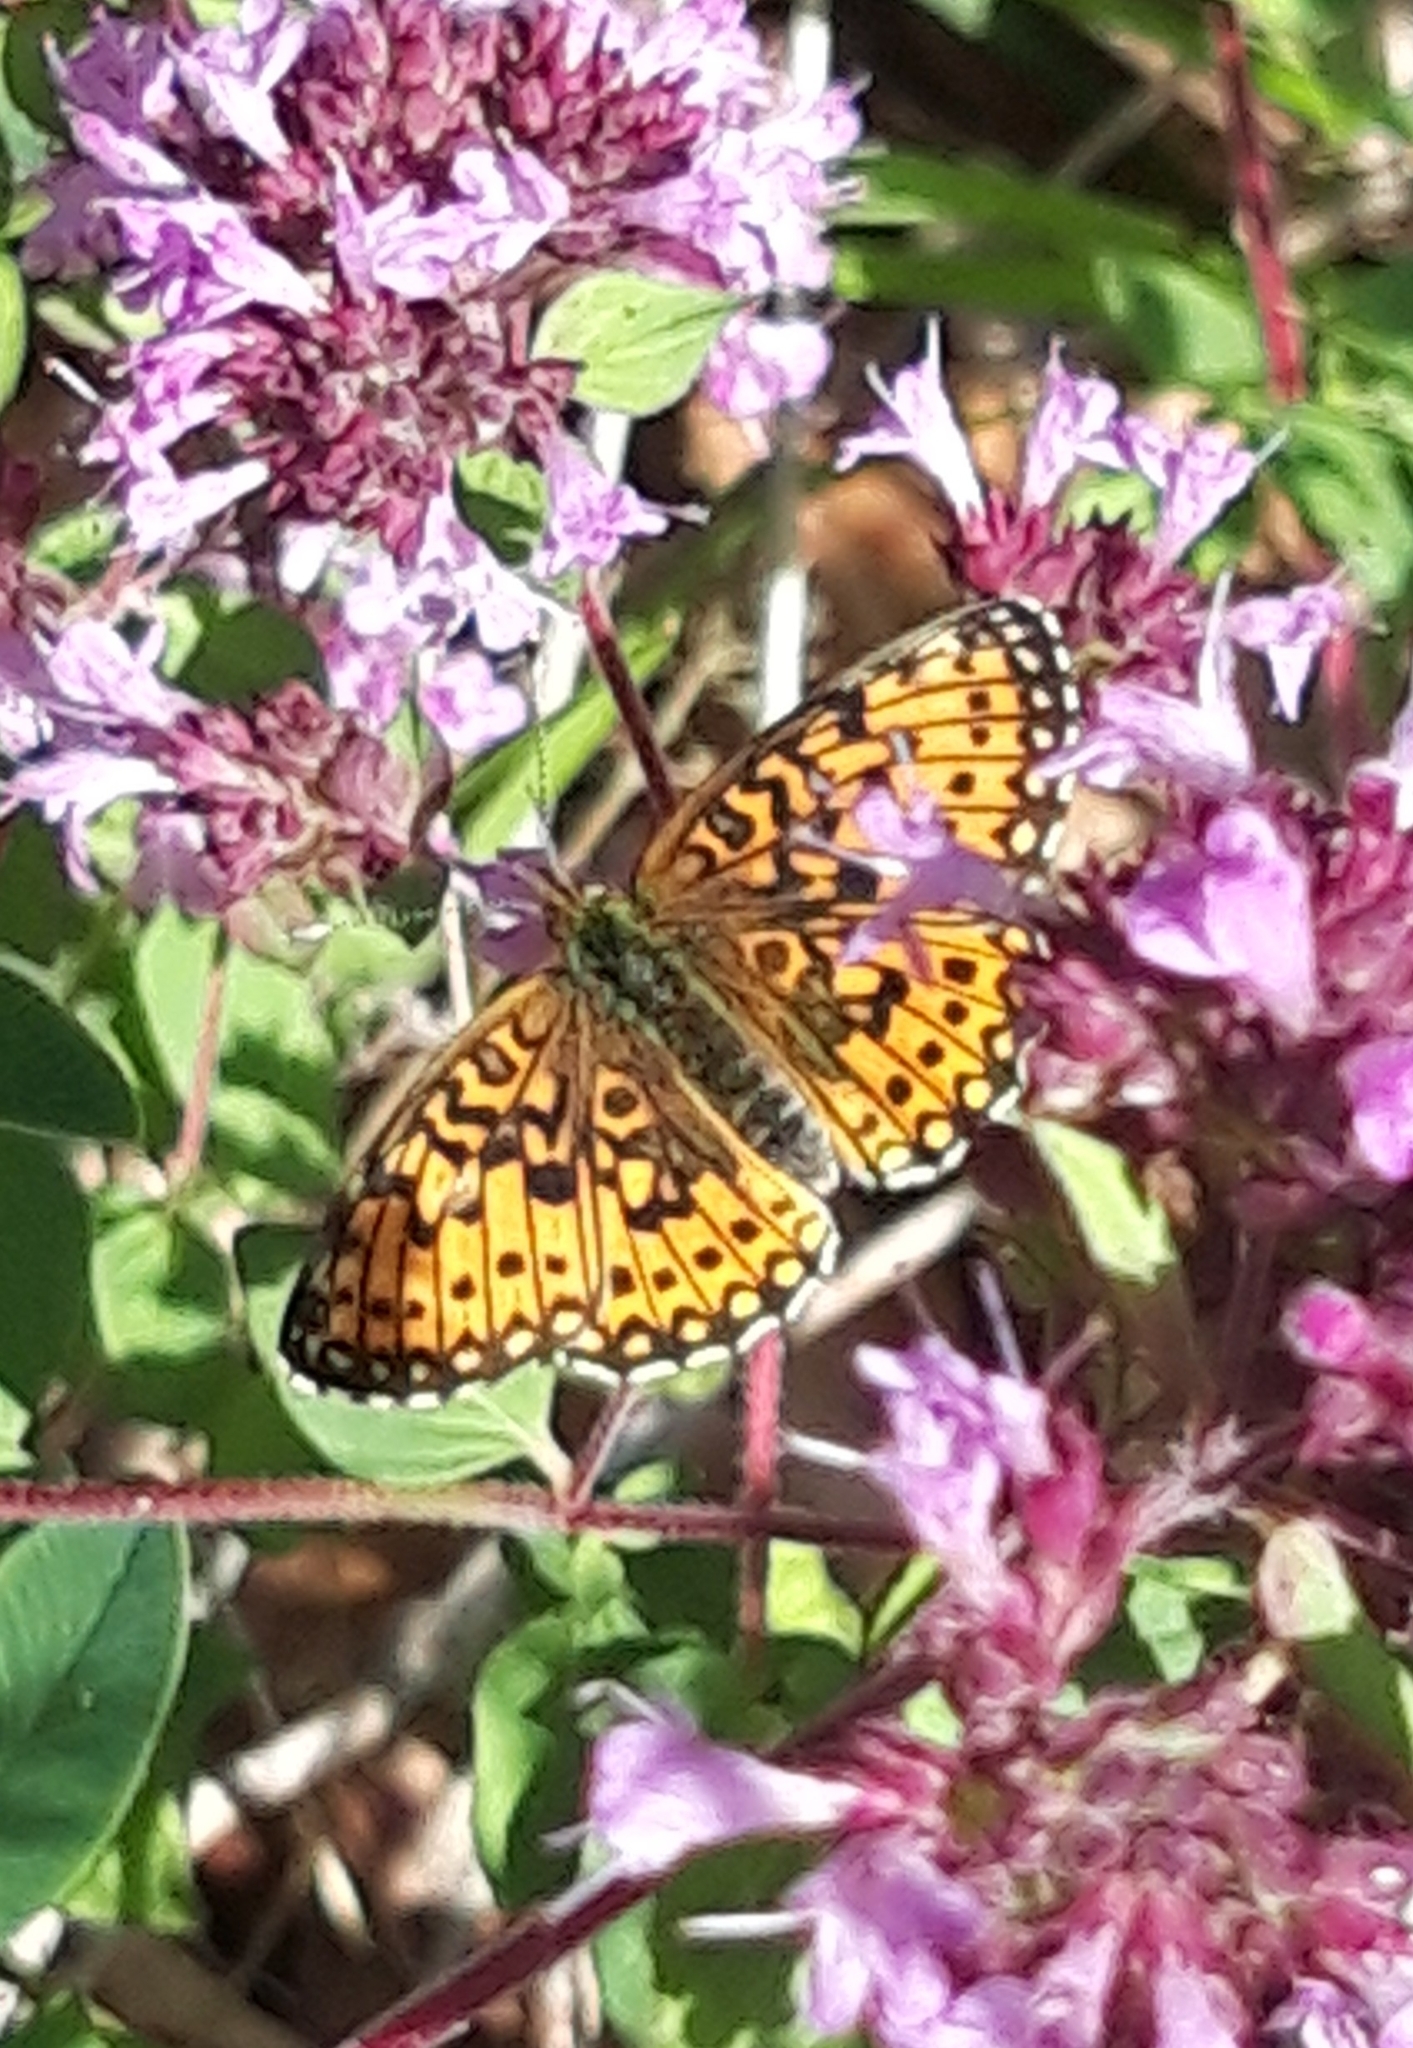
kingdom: Animalia
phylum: Arthropoda
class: Insecta
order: Lepidoptera
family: Nymphalidae
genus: Boloria
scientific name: Boloria selene
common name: Small pearl-bordered fritillary
